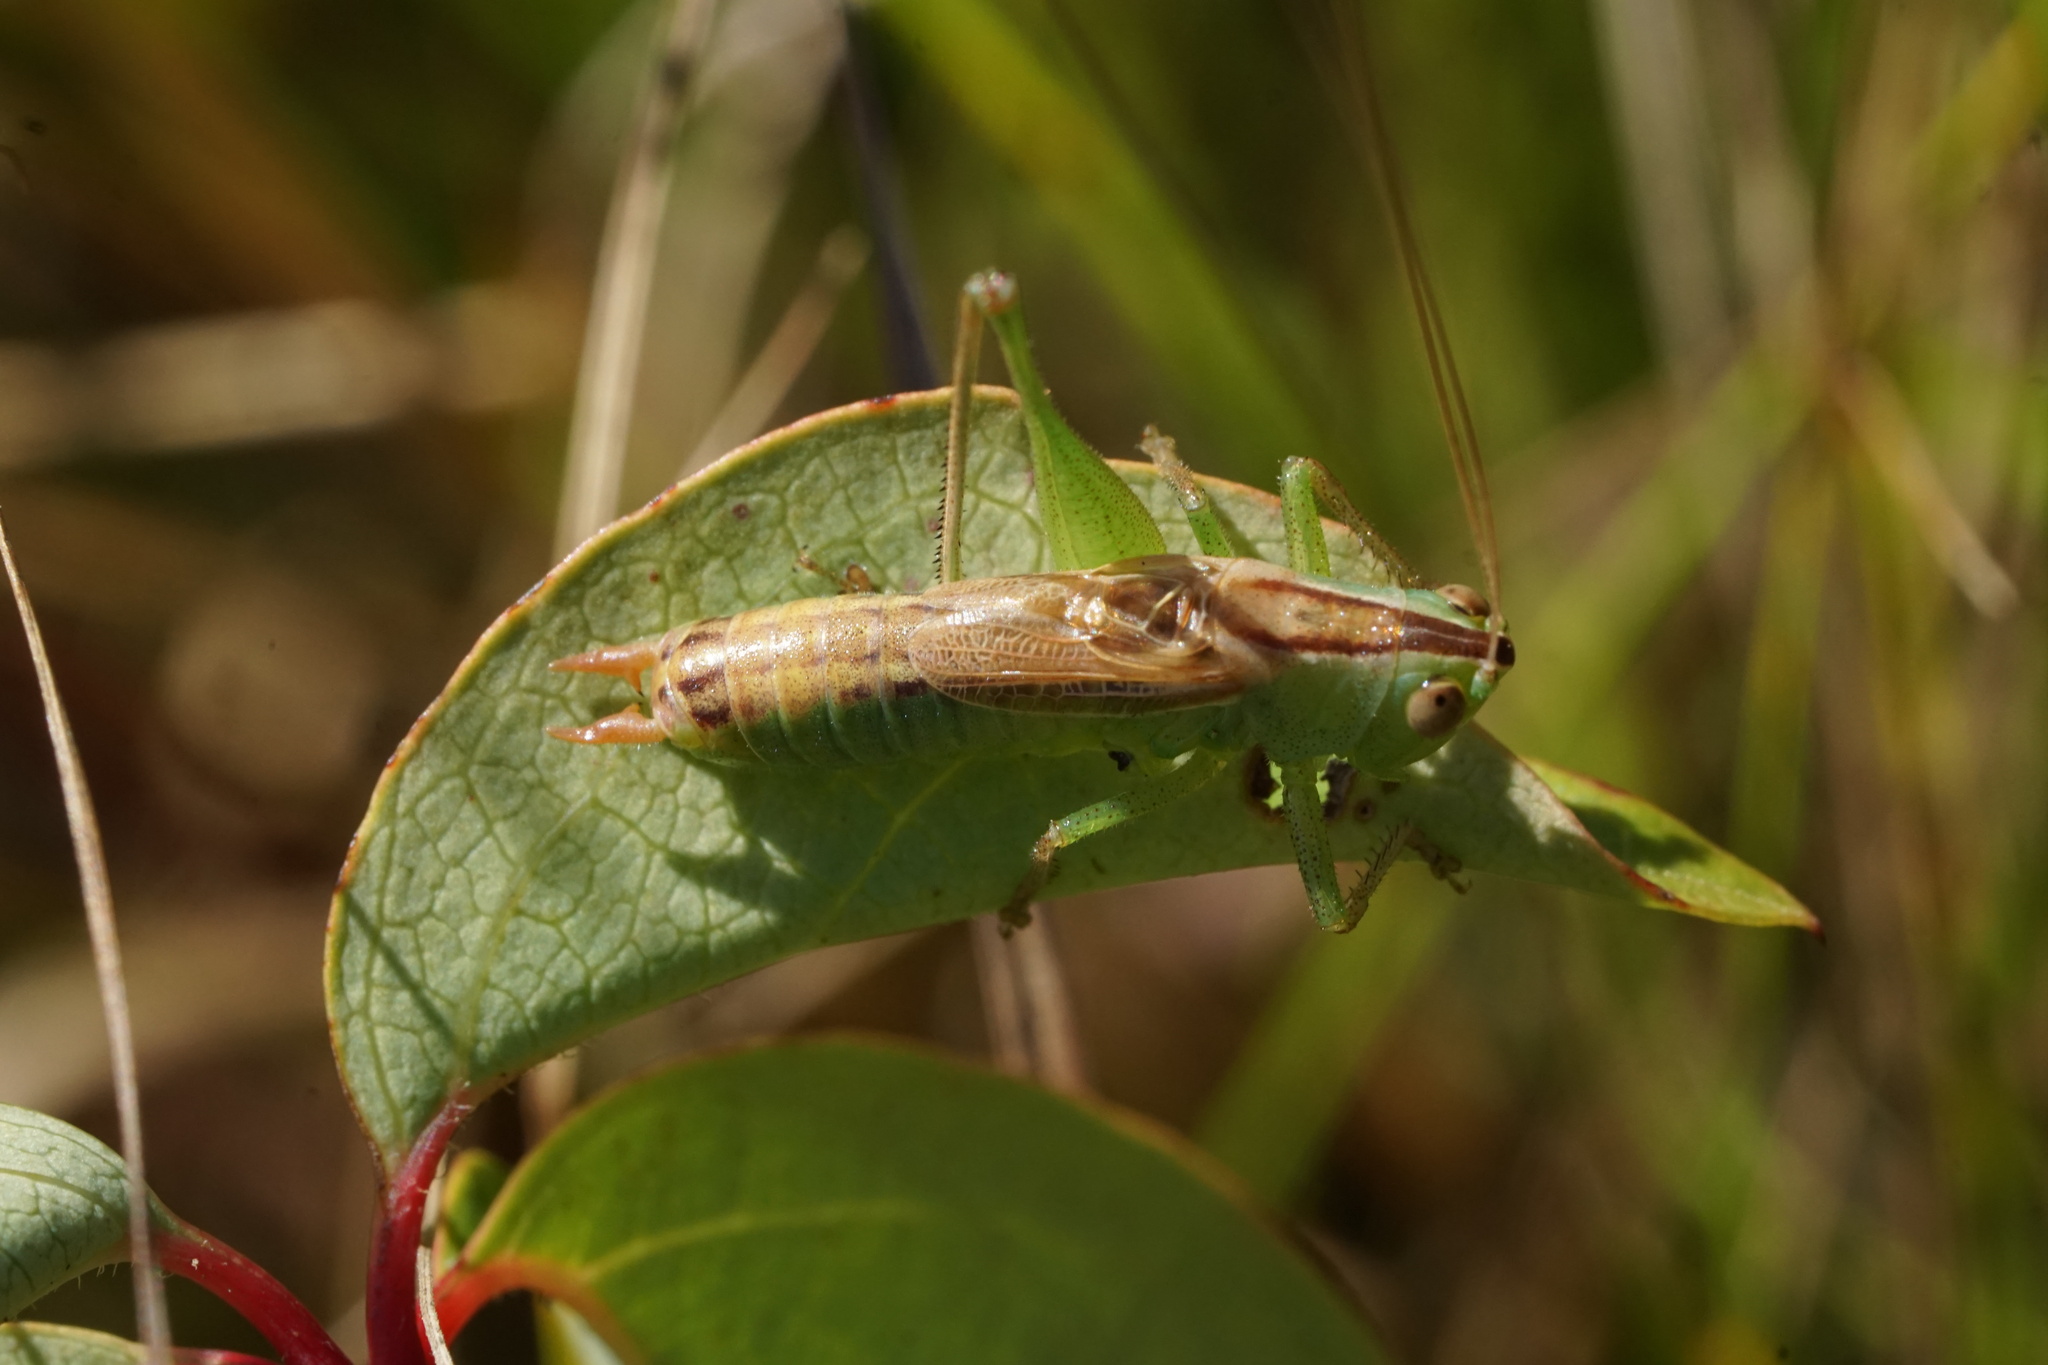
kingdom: Animalia
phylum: Arthropoda
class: Insecta
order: Orthoptera
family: Tettigoniidae
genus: Conocephalus
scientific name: Conocephalus strictus
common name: Straight-lanced katydid
